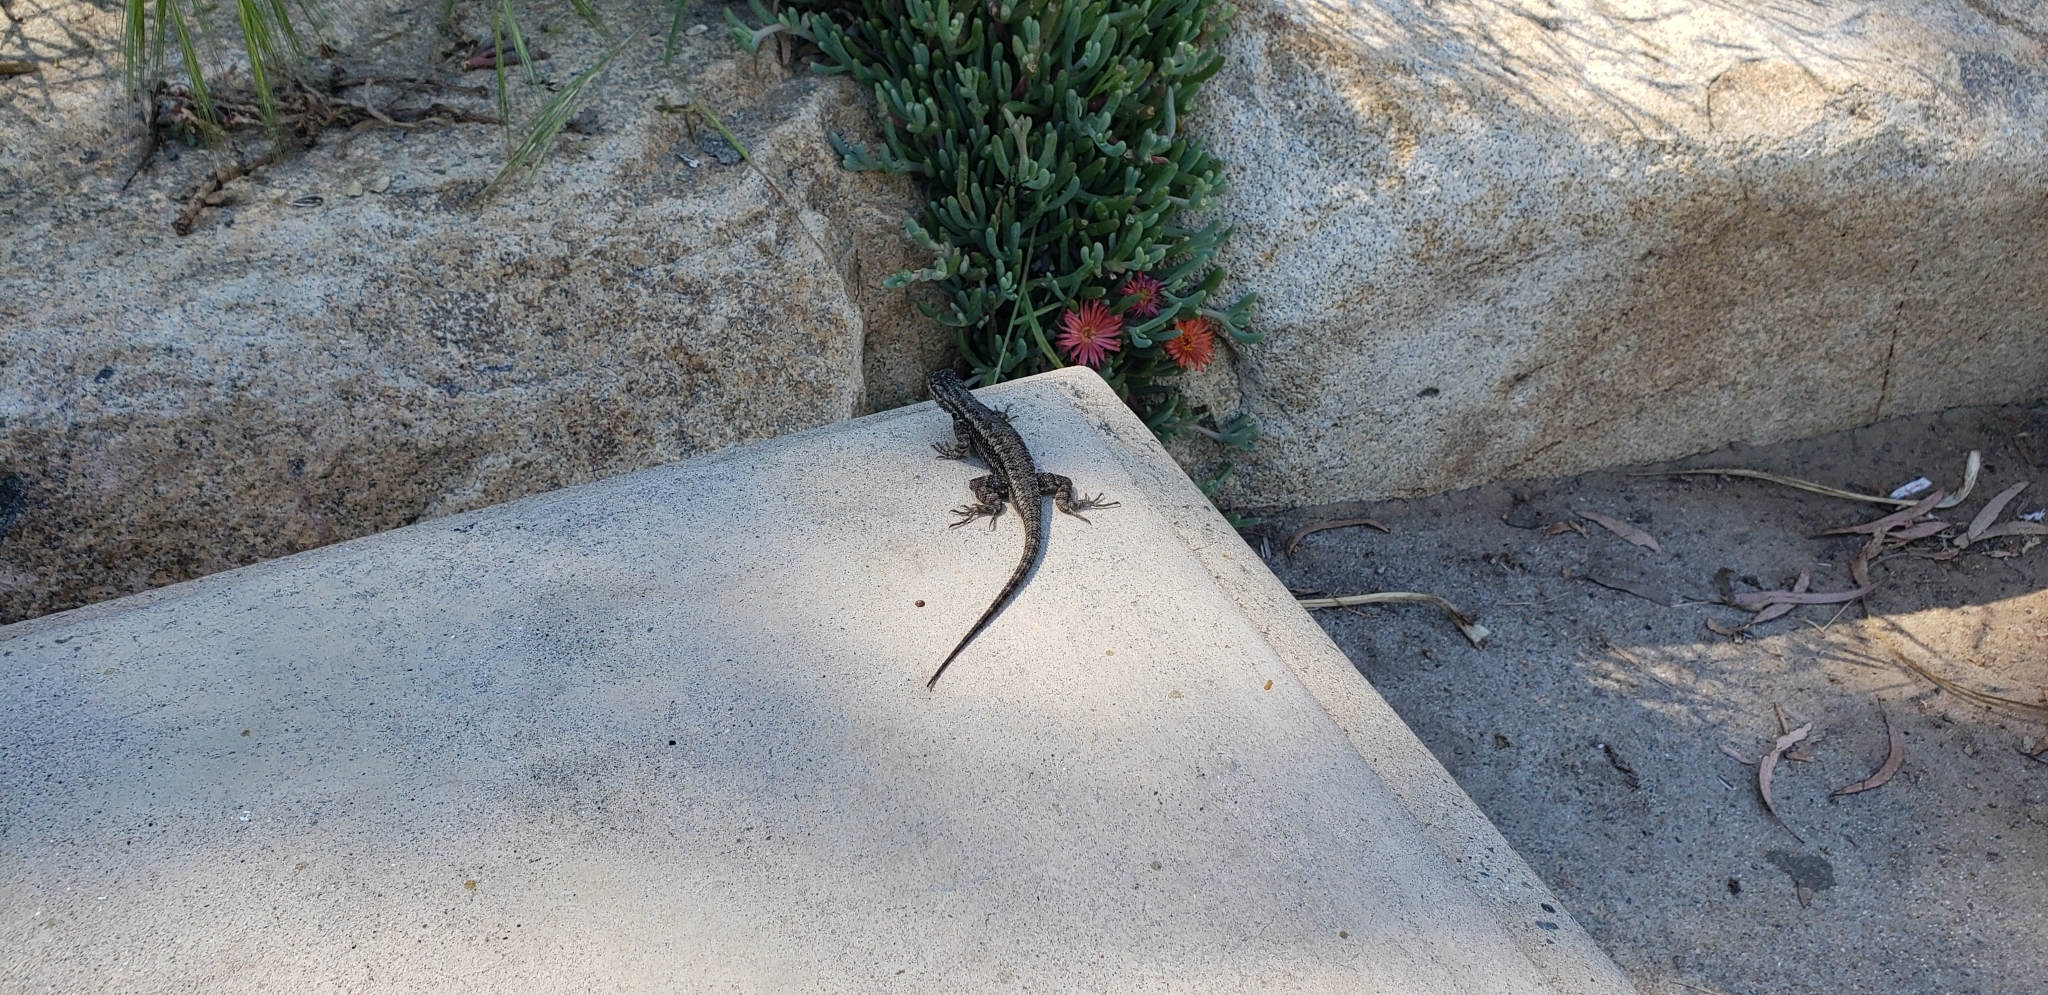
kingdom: Animalia
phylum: Chordata
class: Squamata
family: Phrynosomatidae
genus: Sceloporus
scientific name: Sceloporus occidentalis
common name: Western fence lizard
